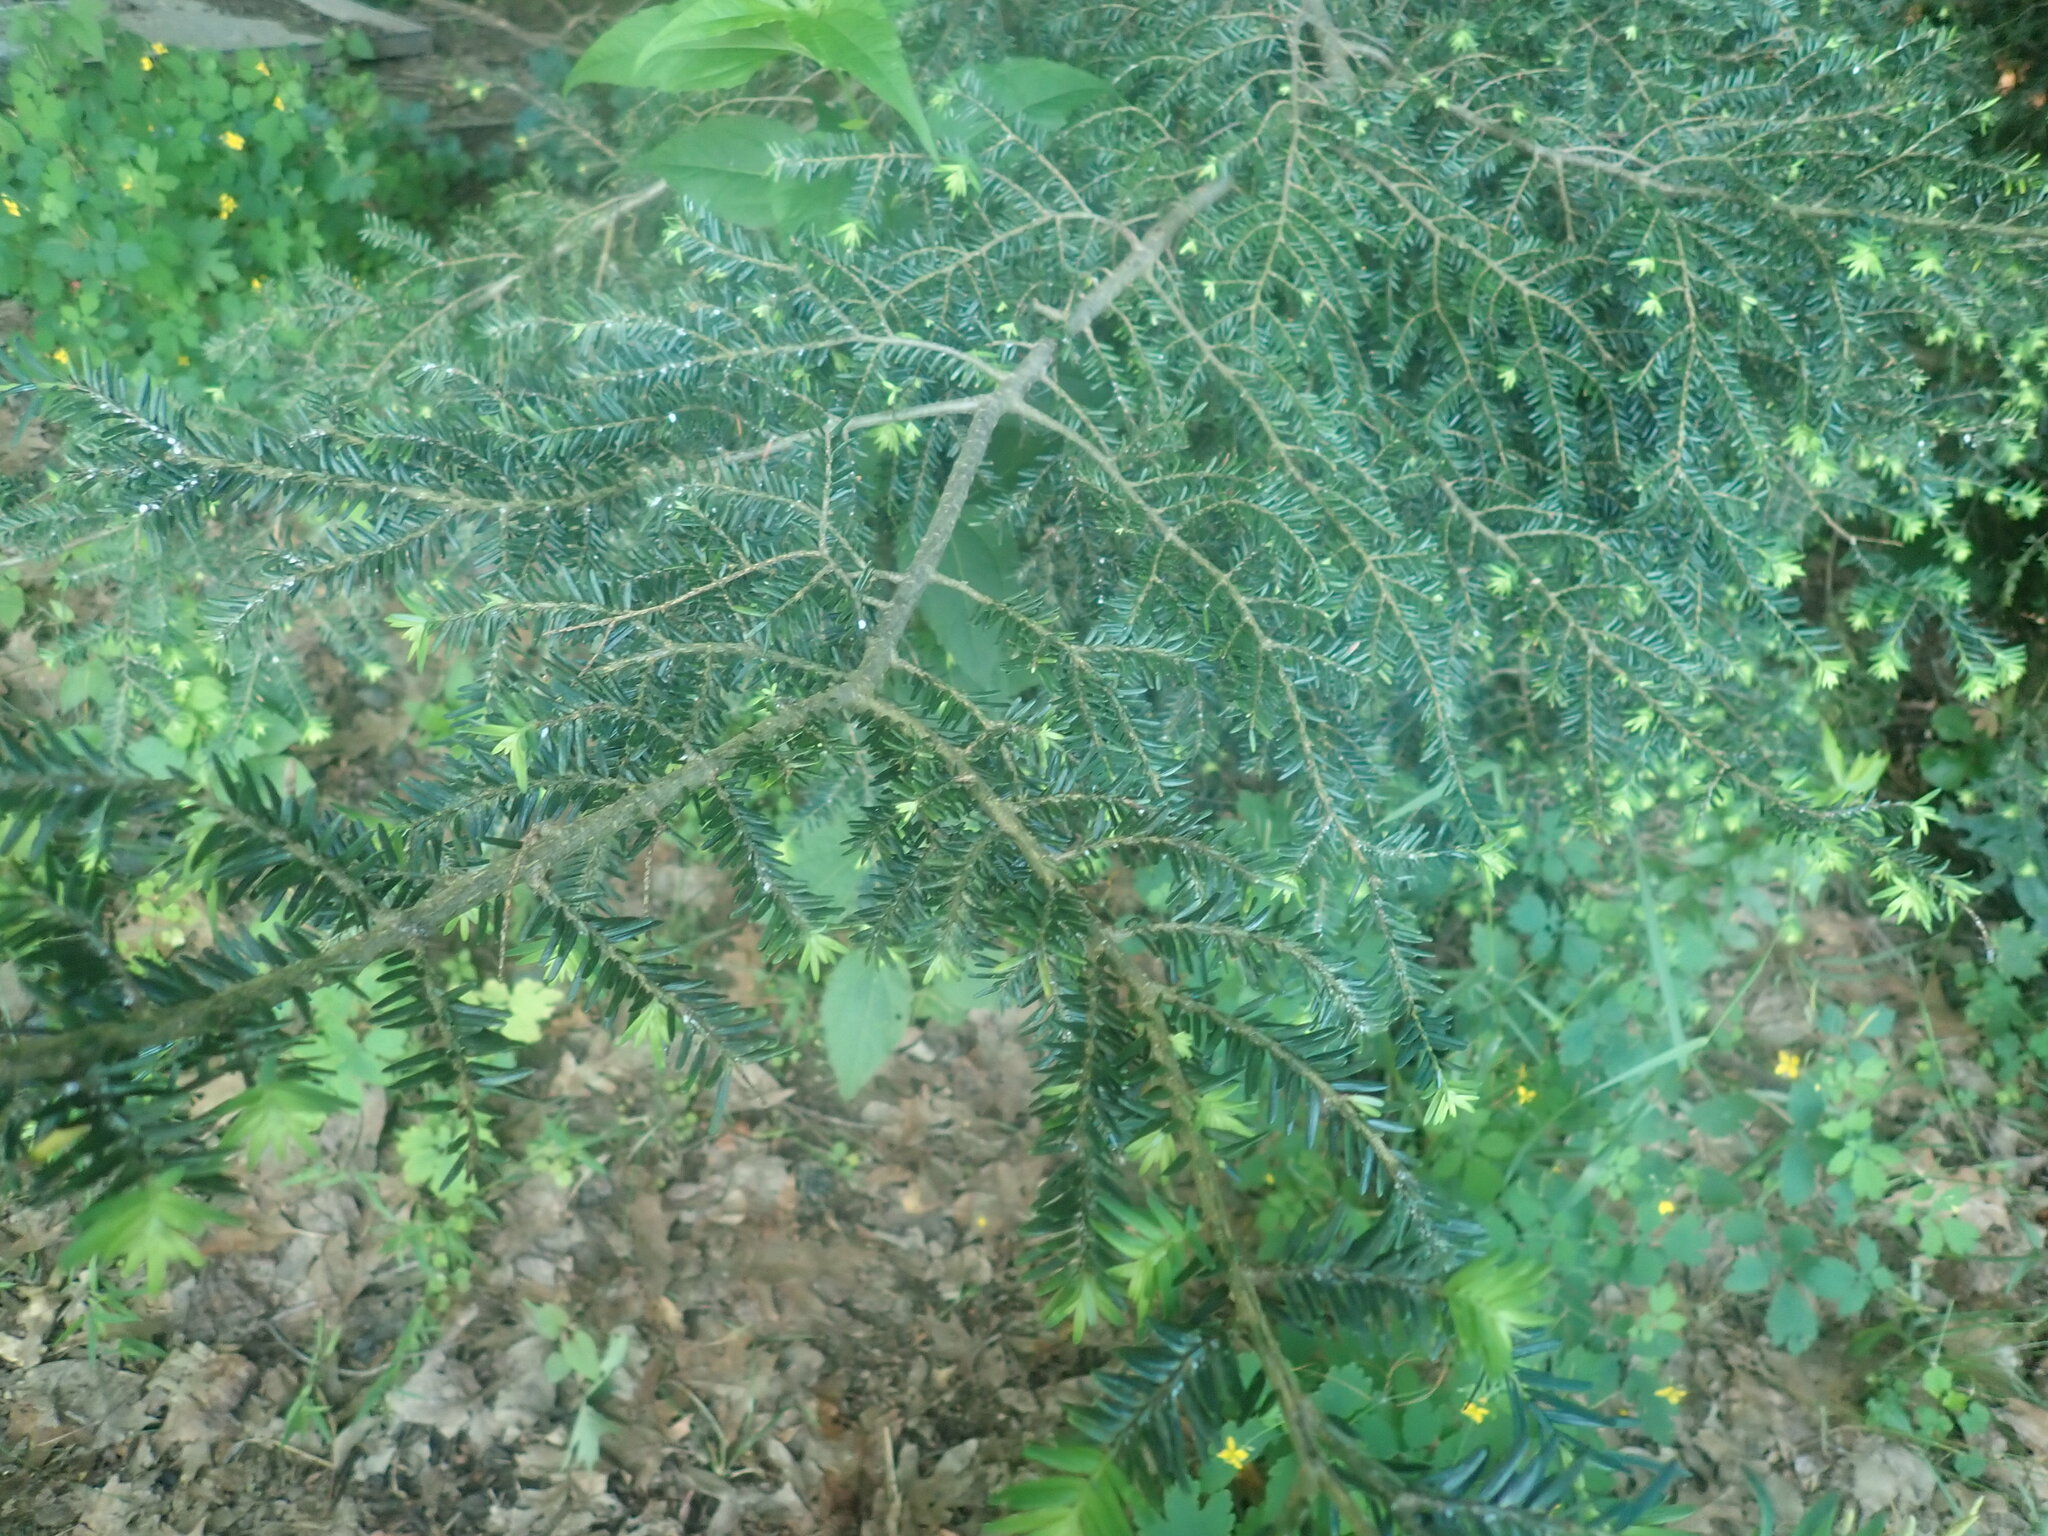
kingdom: Plantae
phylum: Tracheophyta
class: Pinopsida
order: Pinales
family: Pinaceae
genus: Tsuga
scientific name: Tsuga canadensis
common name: Eastern hemlock
